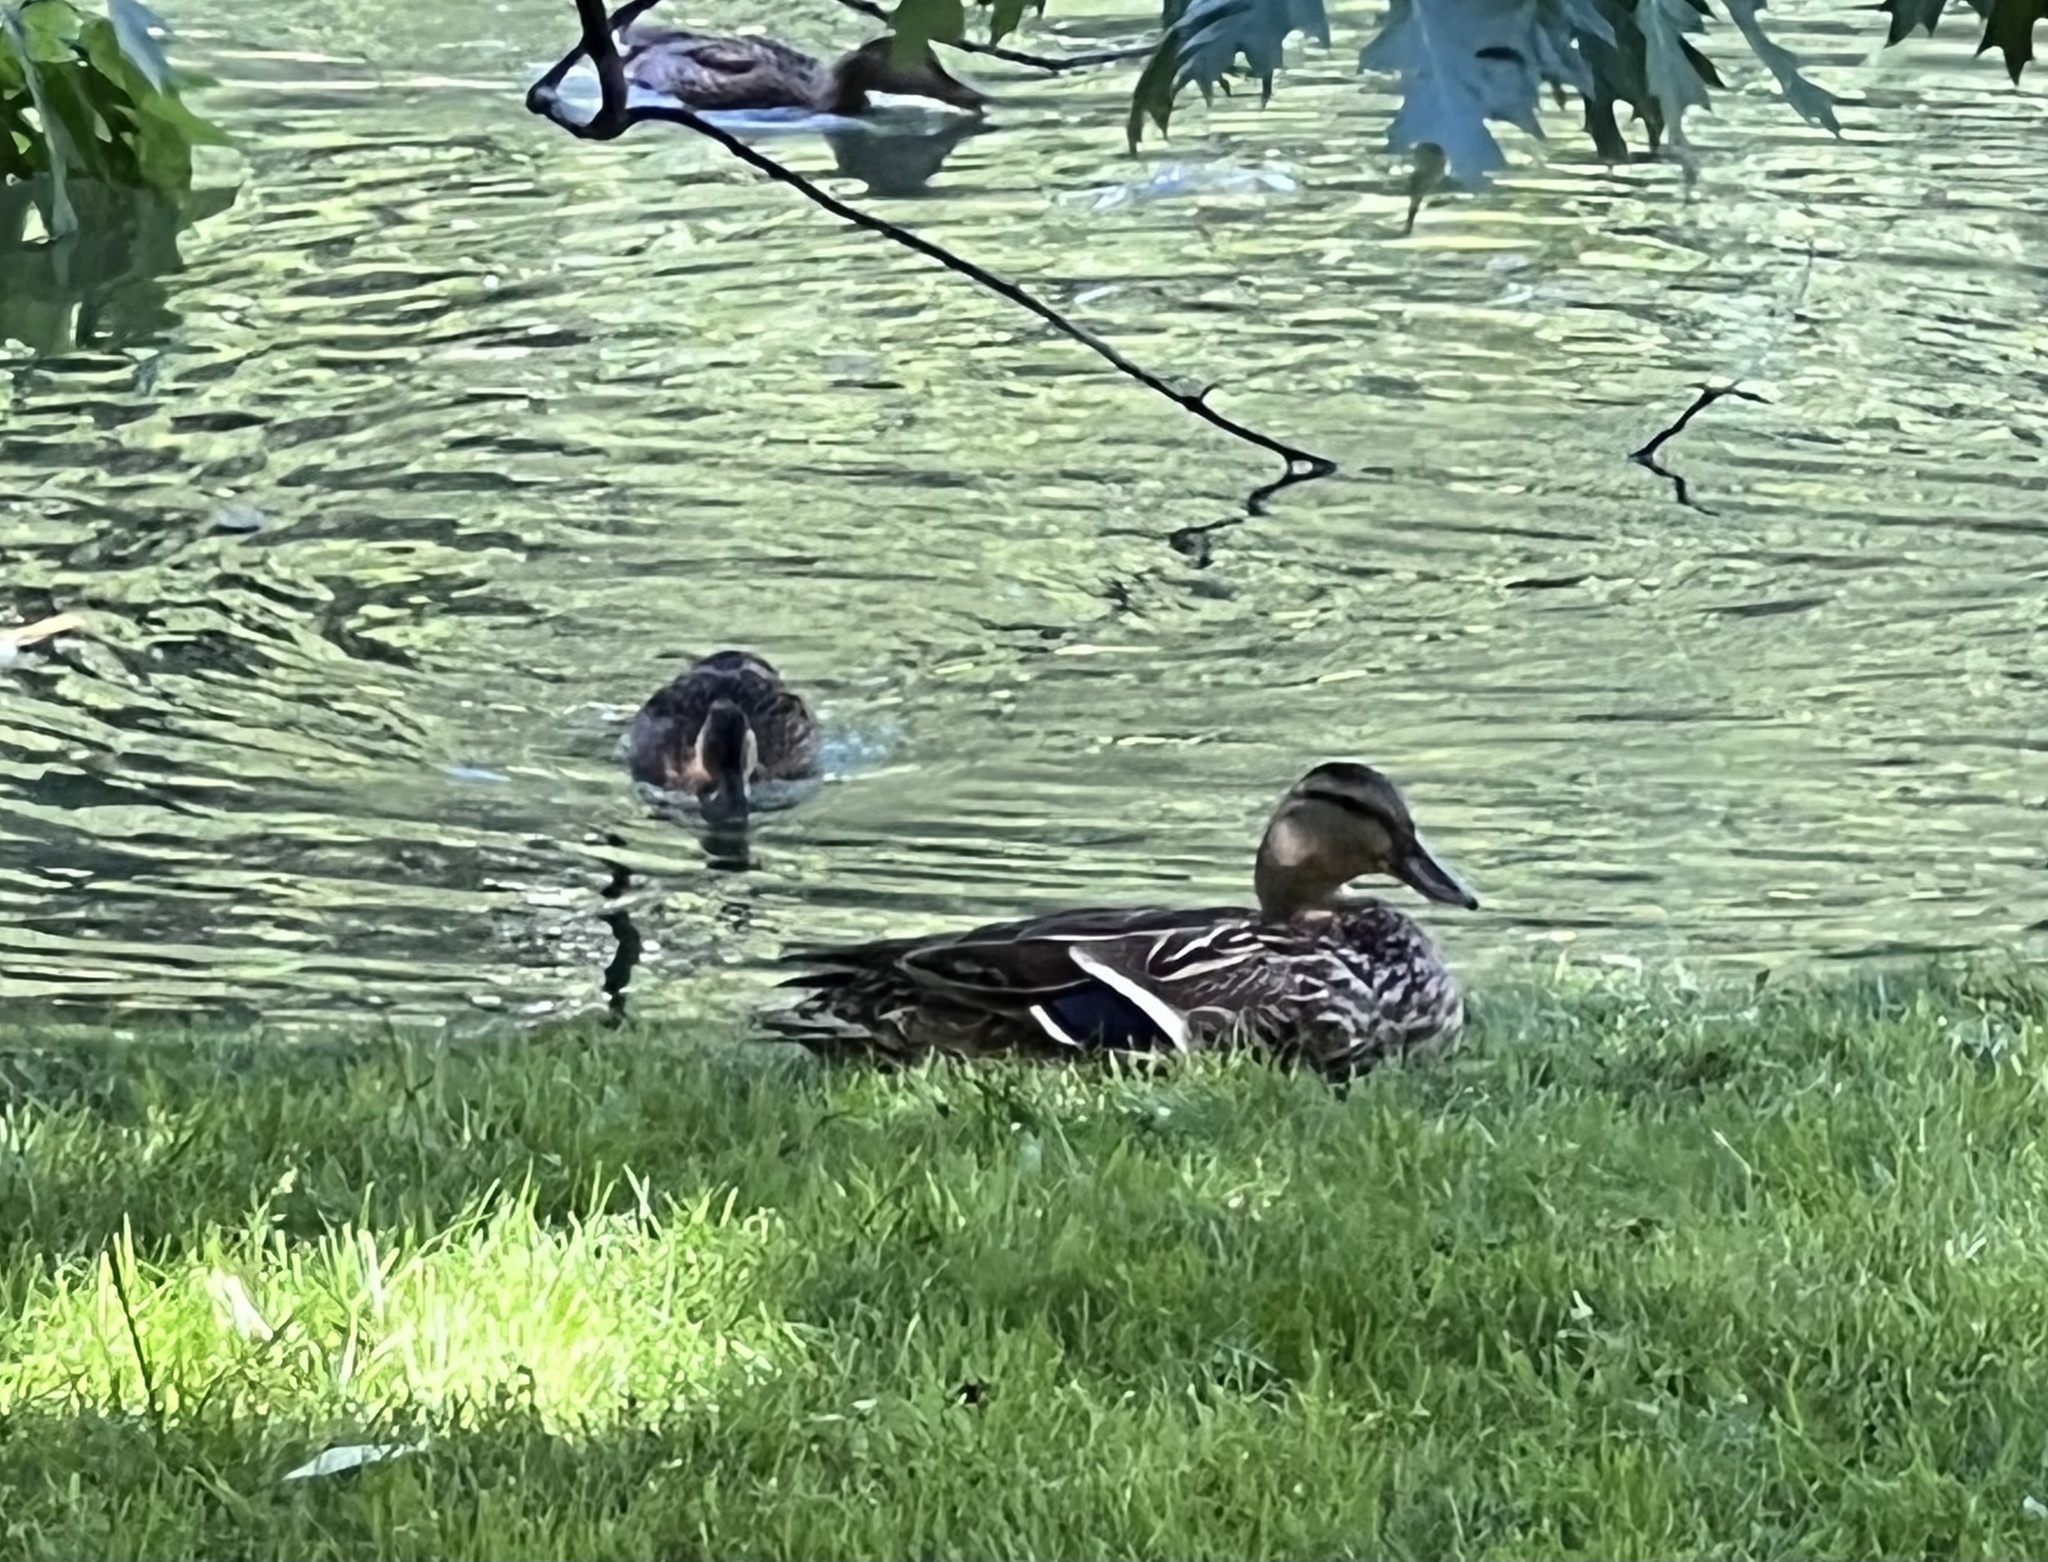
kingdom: Animalia
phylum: Chordata
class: Aves
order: Anseriformes
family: Anatidae
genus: Anas
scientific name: Anas platyrhynchos
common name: Mallard
